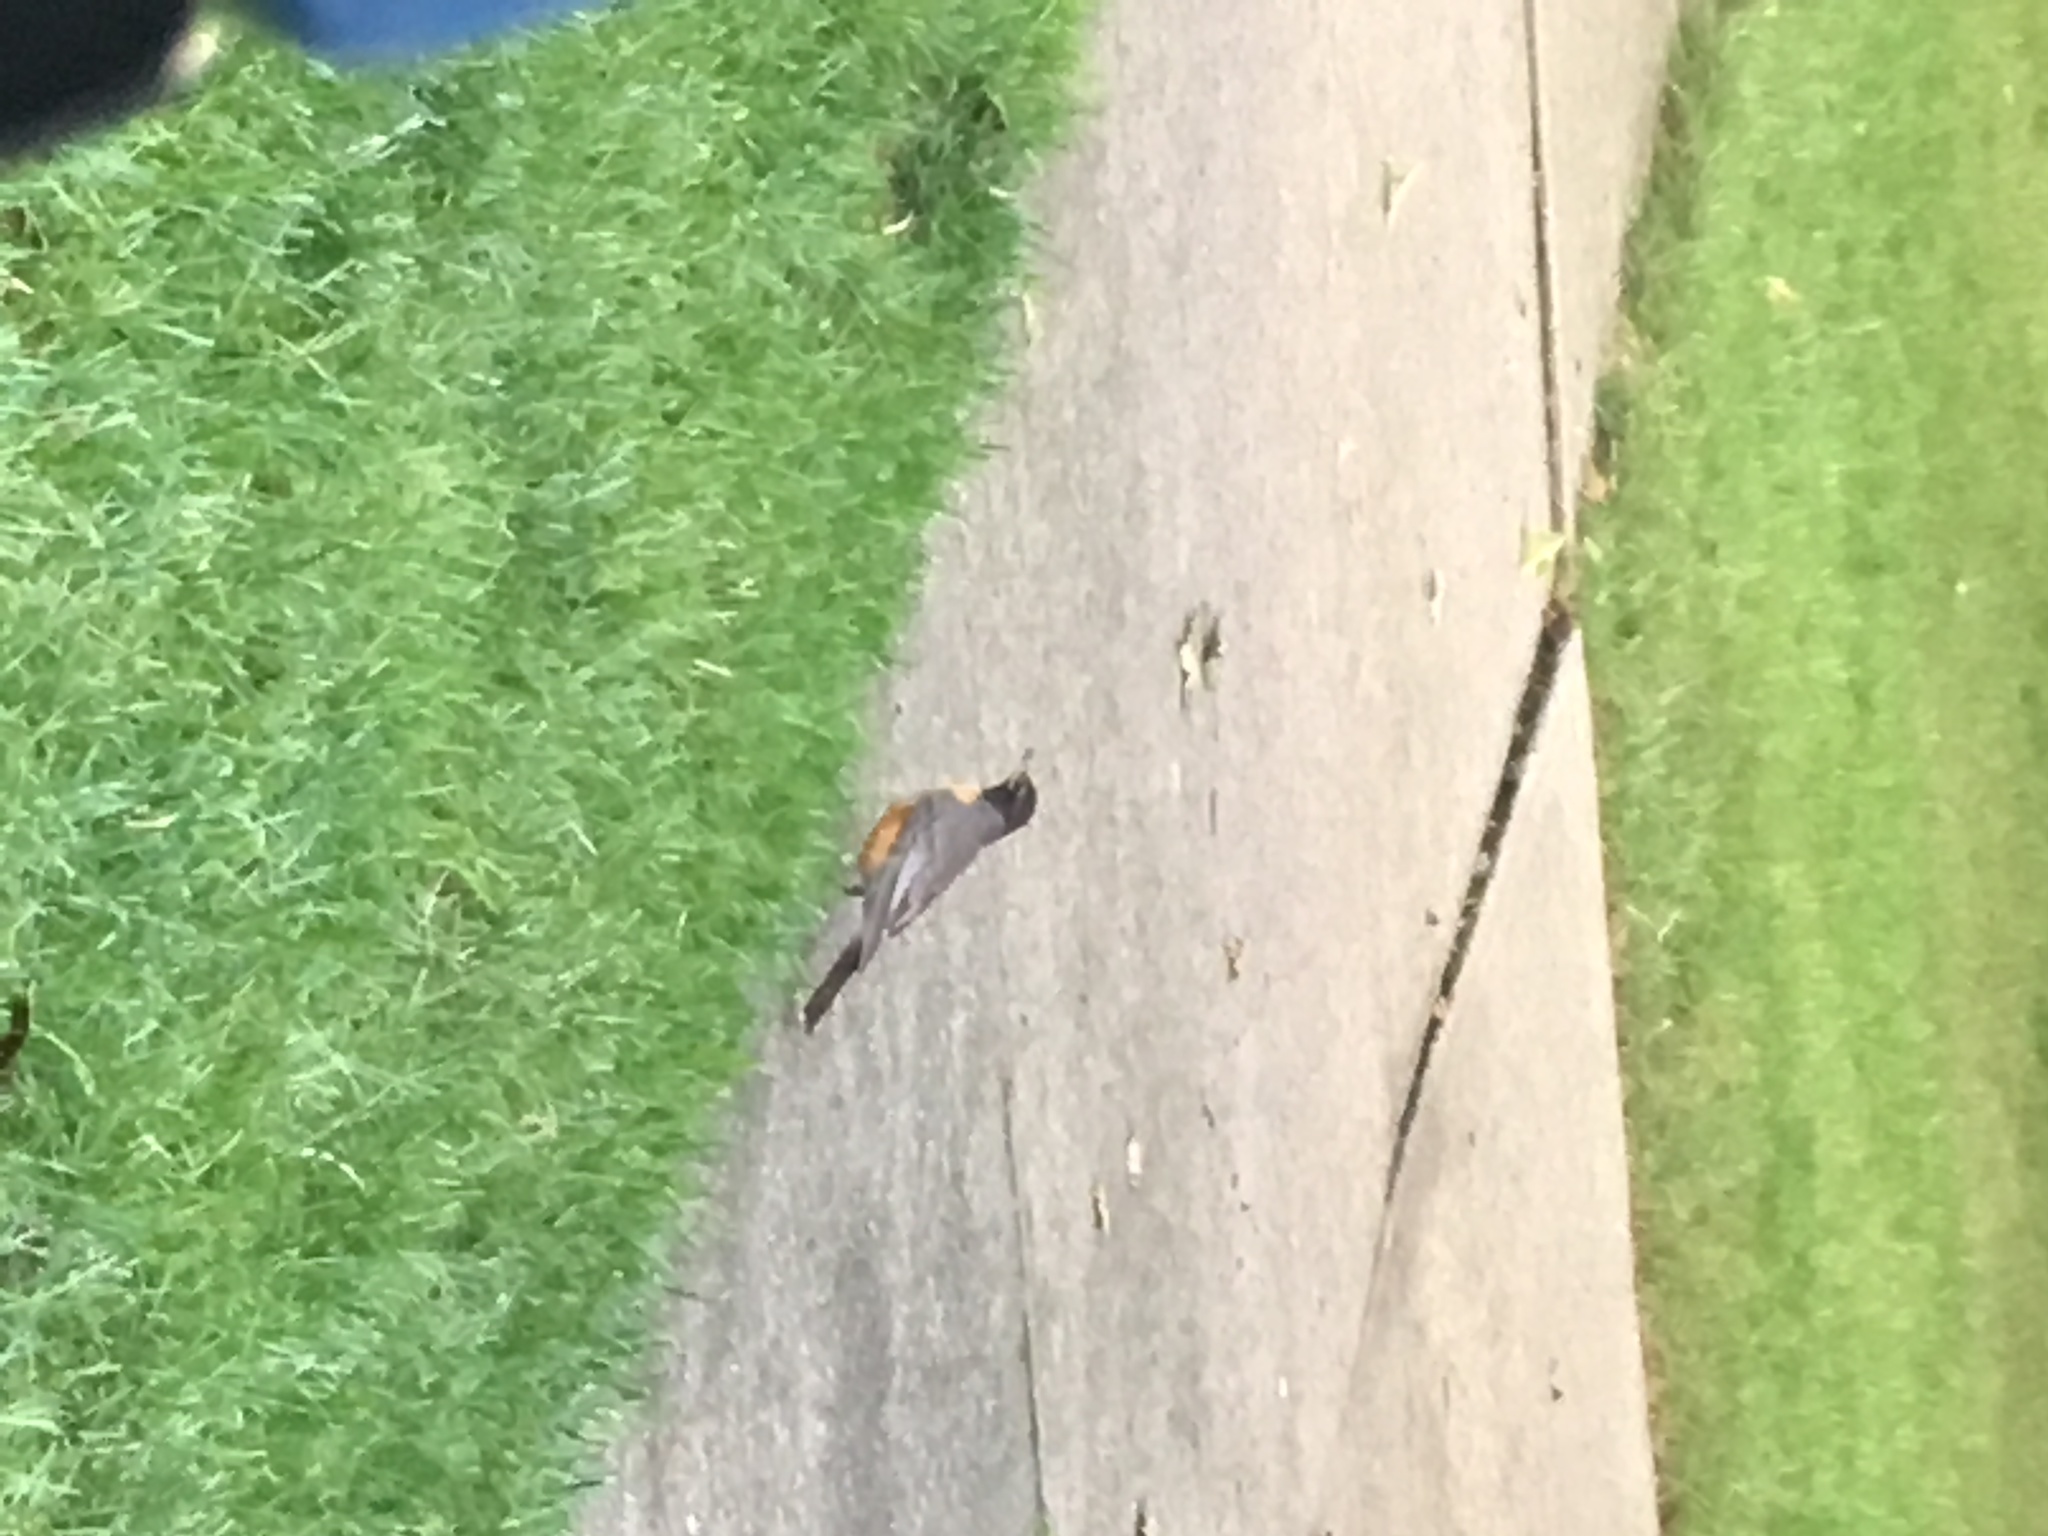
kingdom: Animalia
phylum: Chordata
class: Aves
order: Passeriformes
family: Turdidae
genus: Turdus
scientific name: Turdus migratorius
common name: American robin
